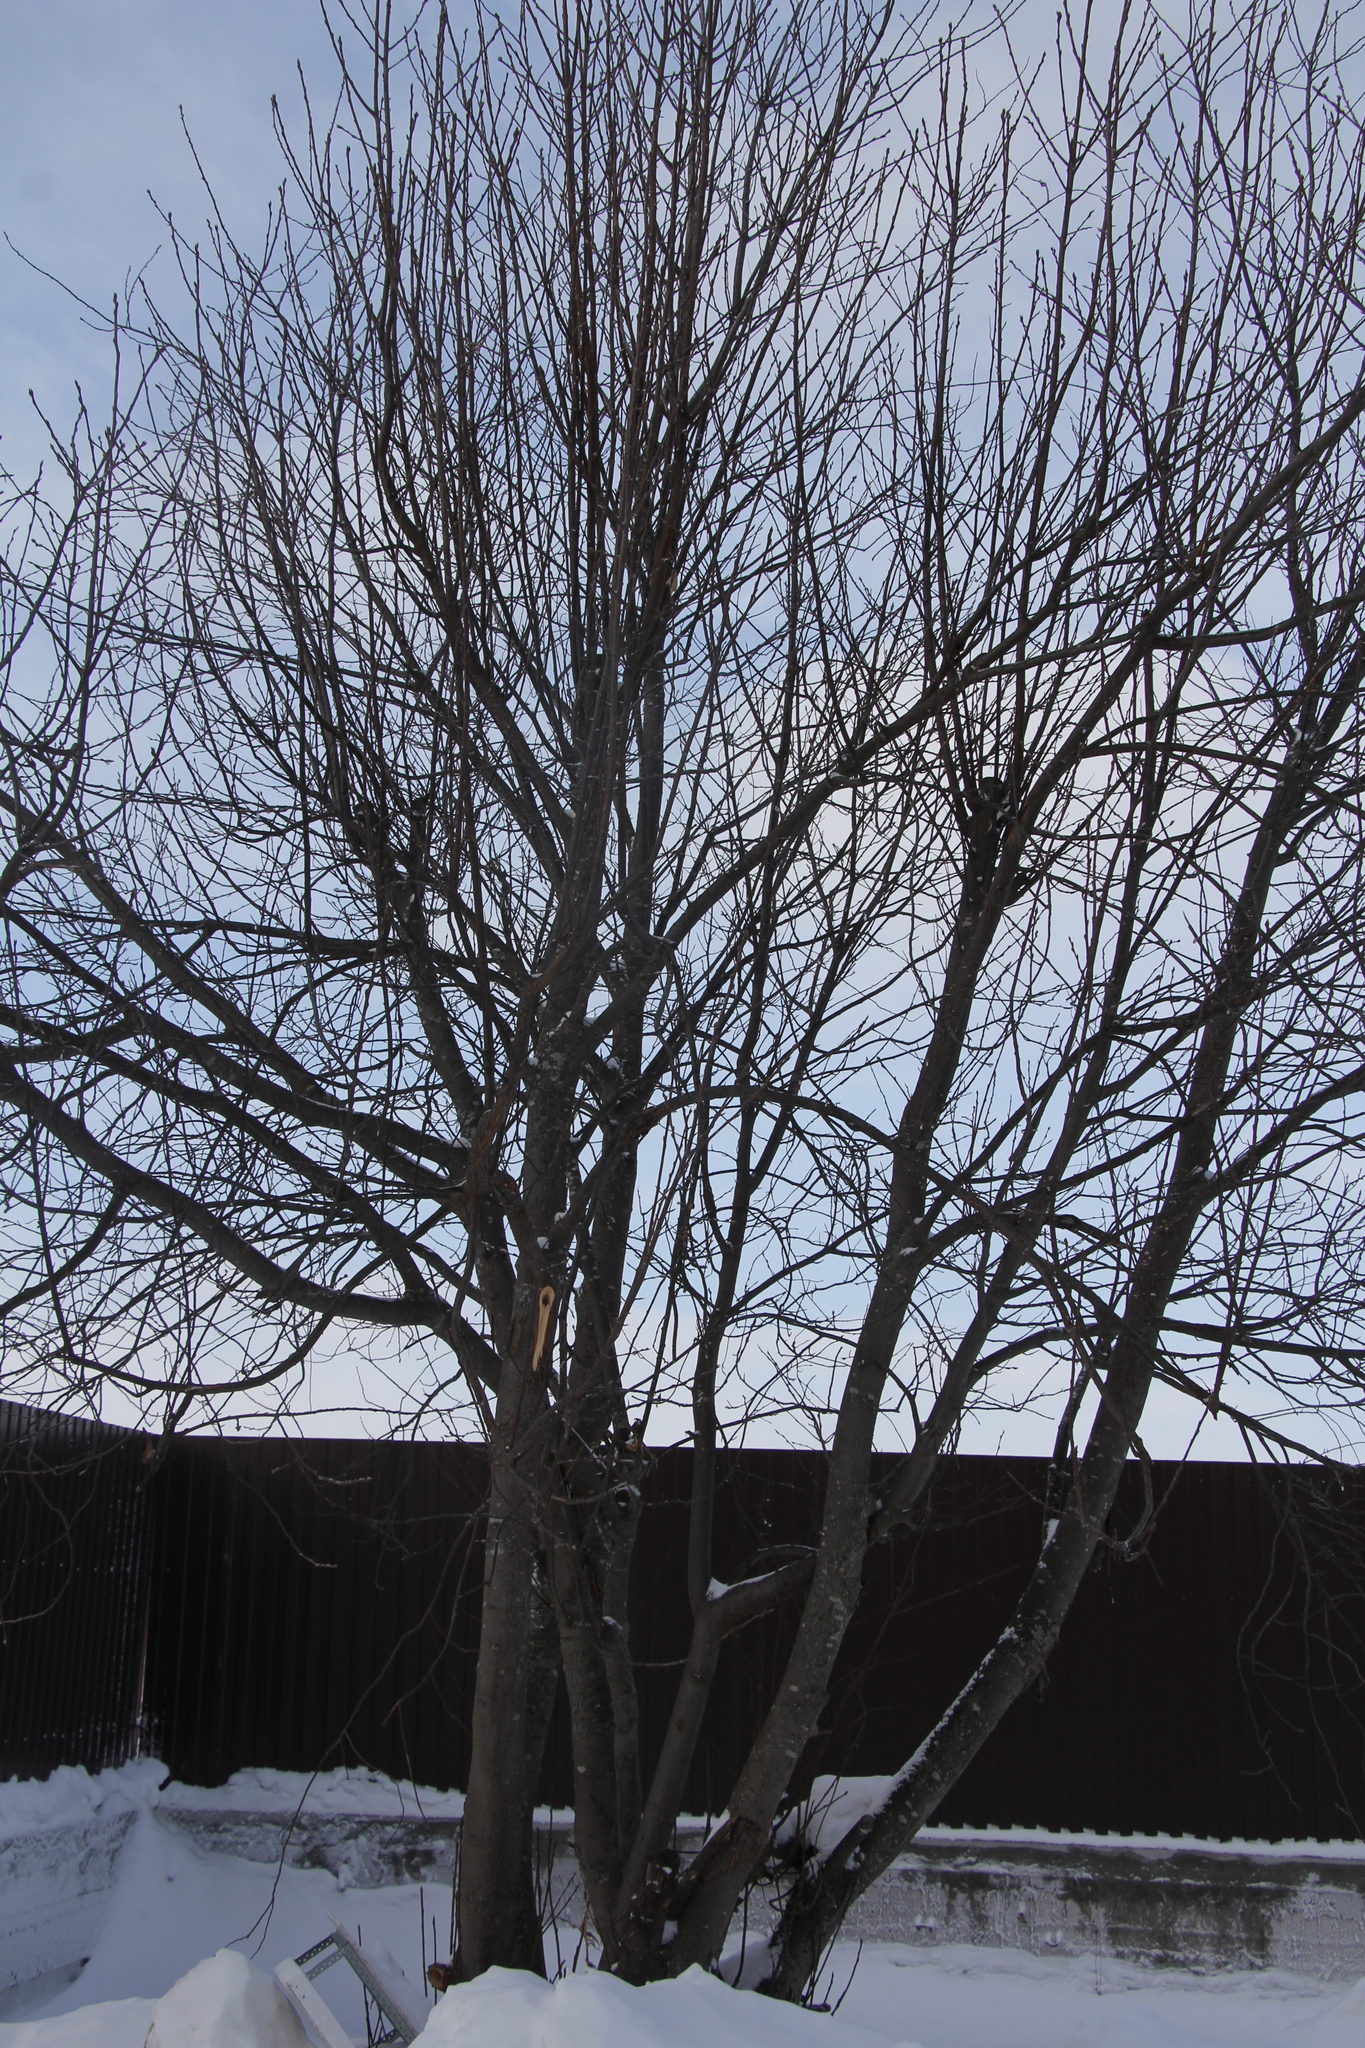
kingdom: Plantae
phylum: Tracheophyta
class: Magnoliopsida
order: Rosales
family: Rosaceae
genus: Prunus
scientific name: Prunus padus
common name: Bird cherry
